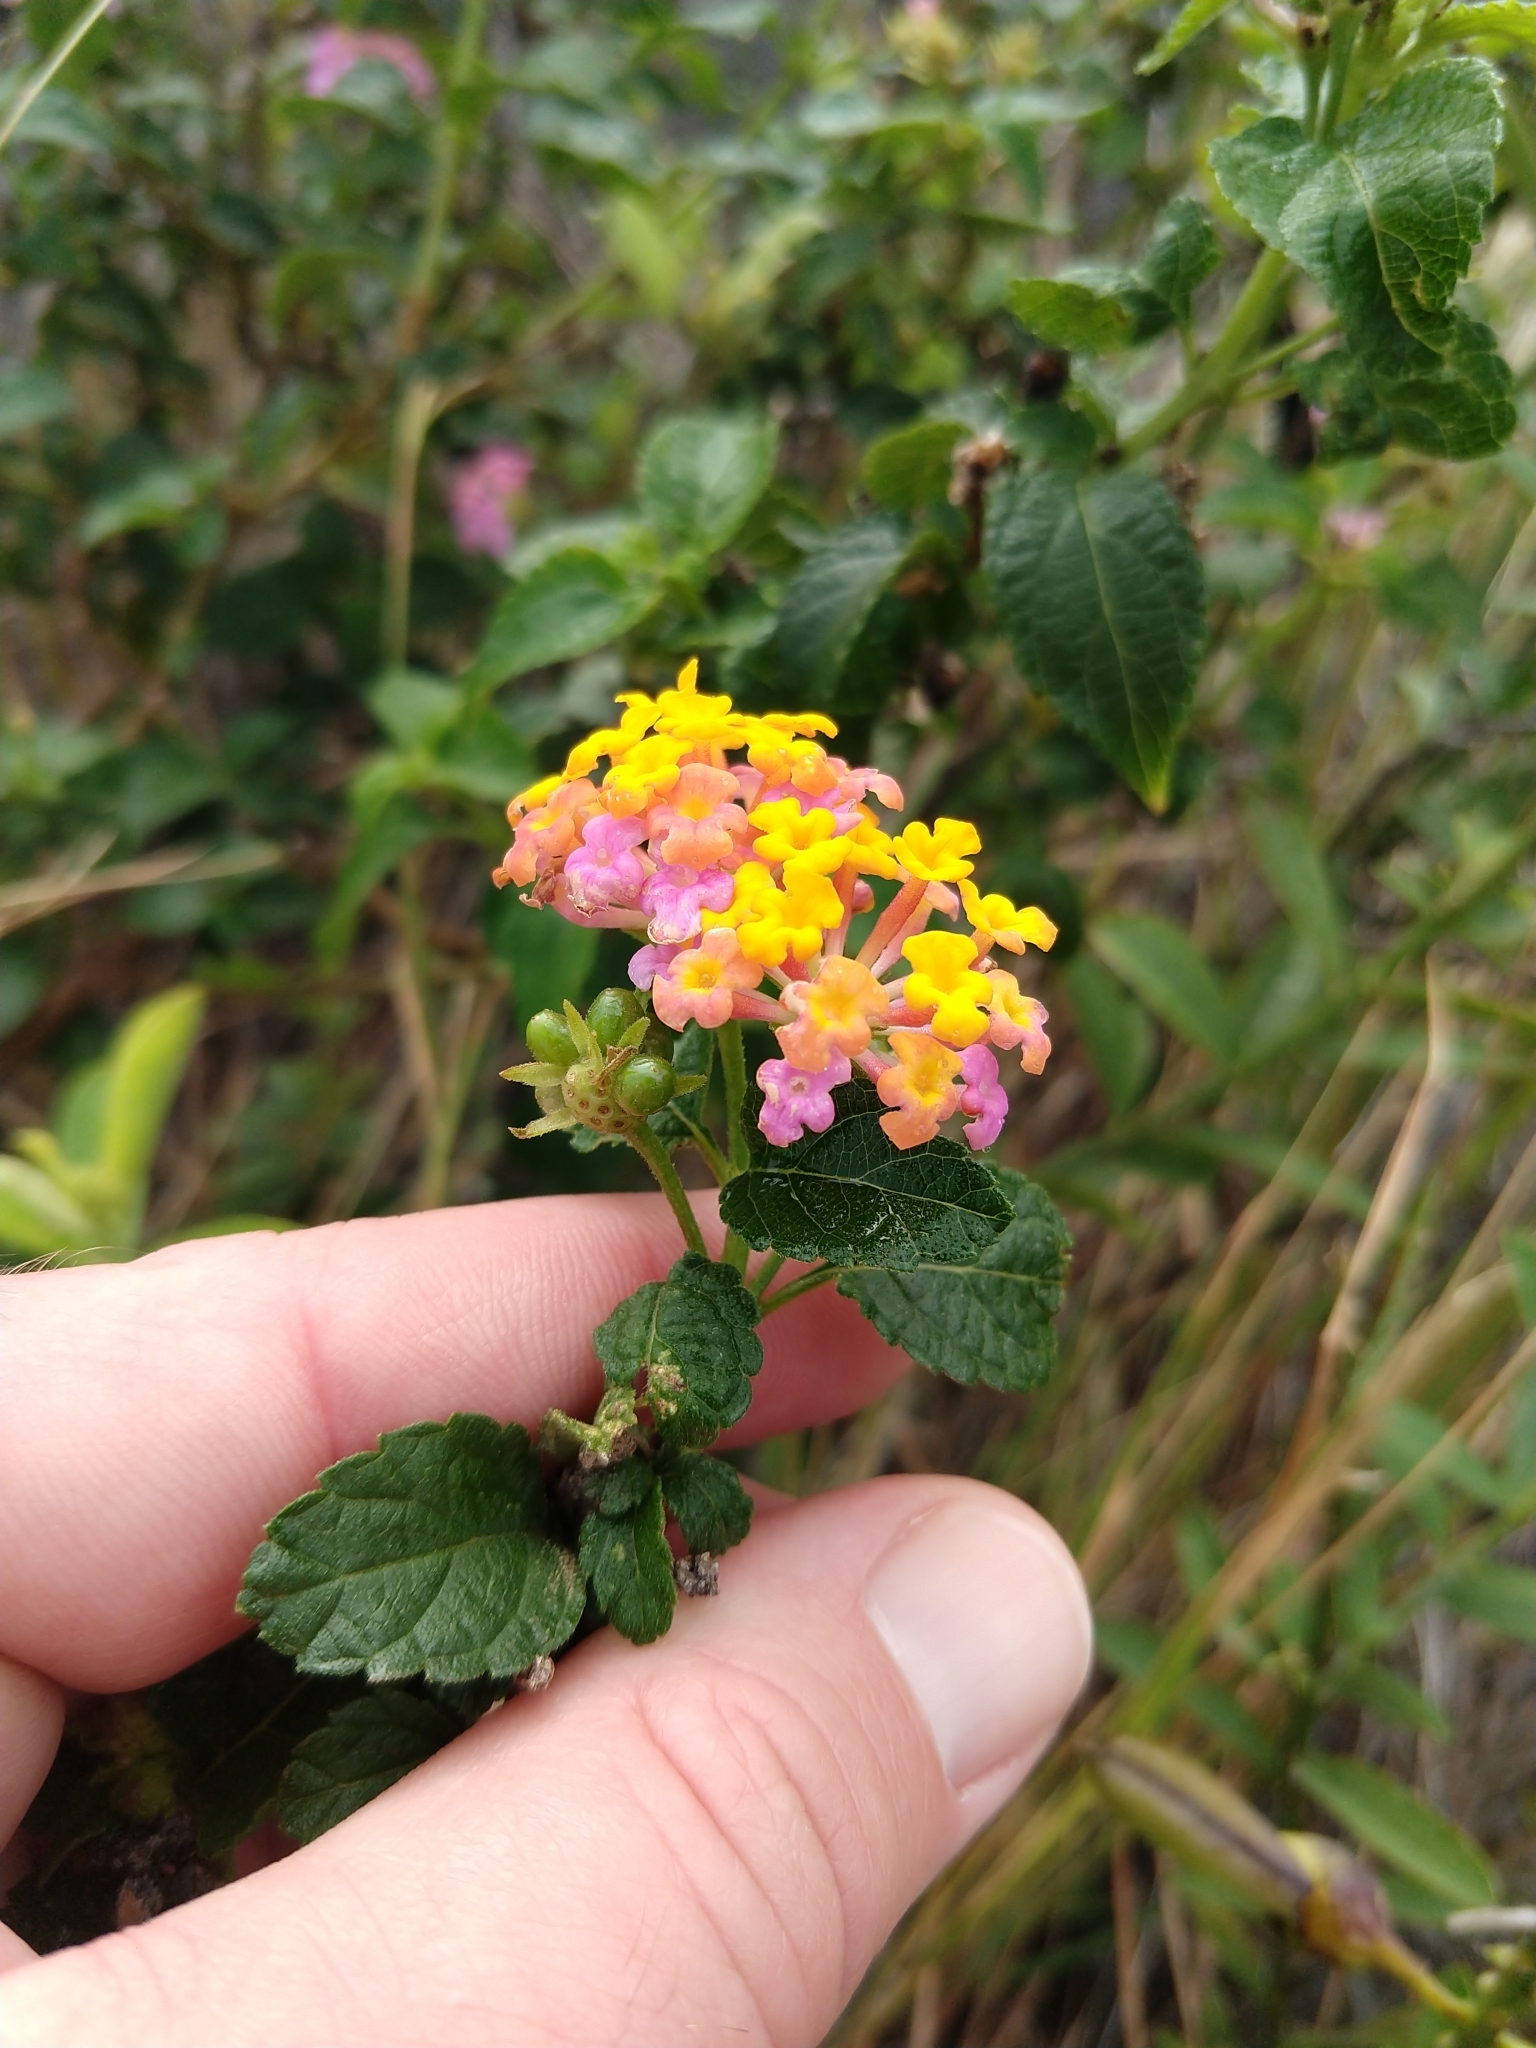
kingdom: Plantae
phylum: Tracheophyta
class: Magnoliopsida
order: Lamiales
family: Verbenaceae
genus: Lantana
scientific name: Lantana camara
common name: Lantana
